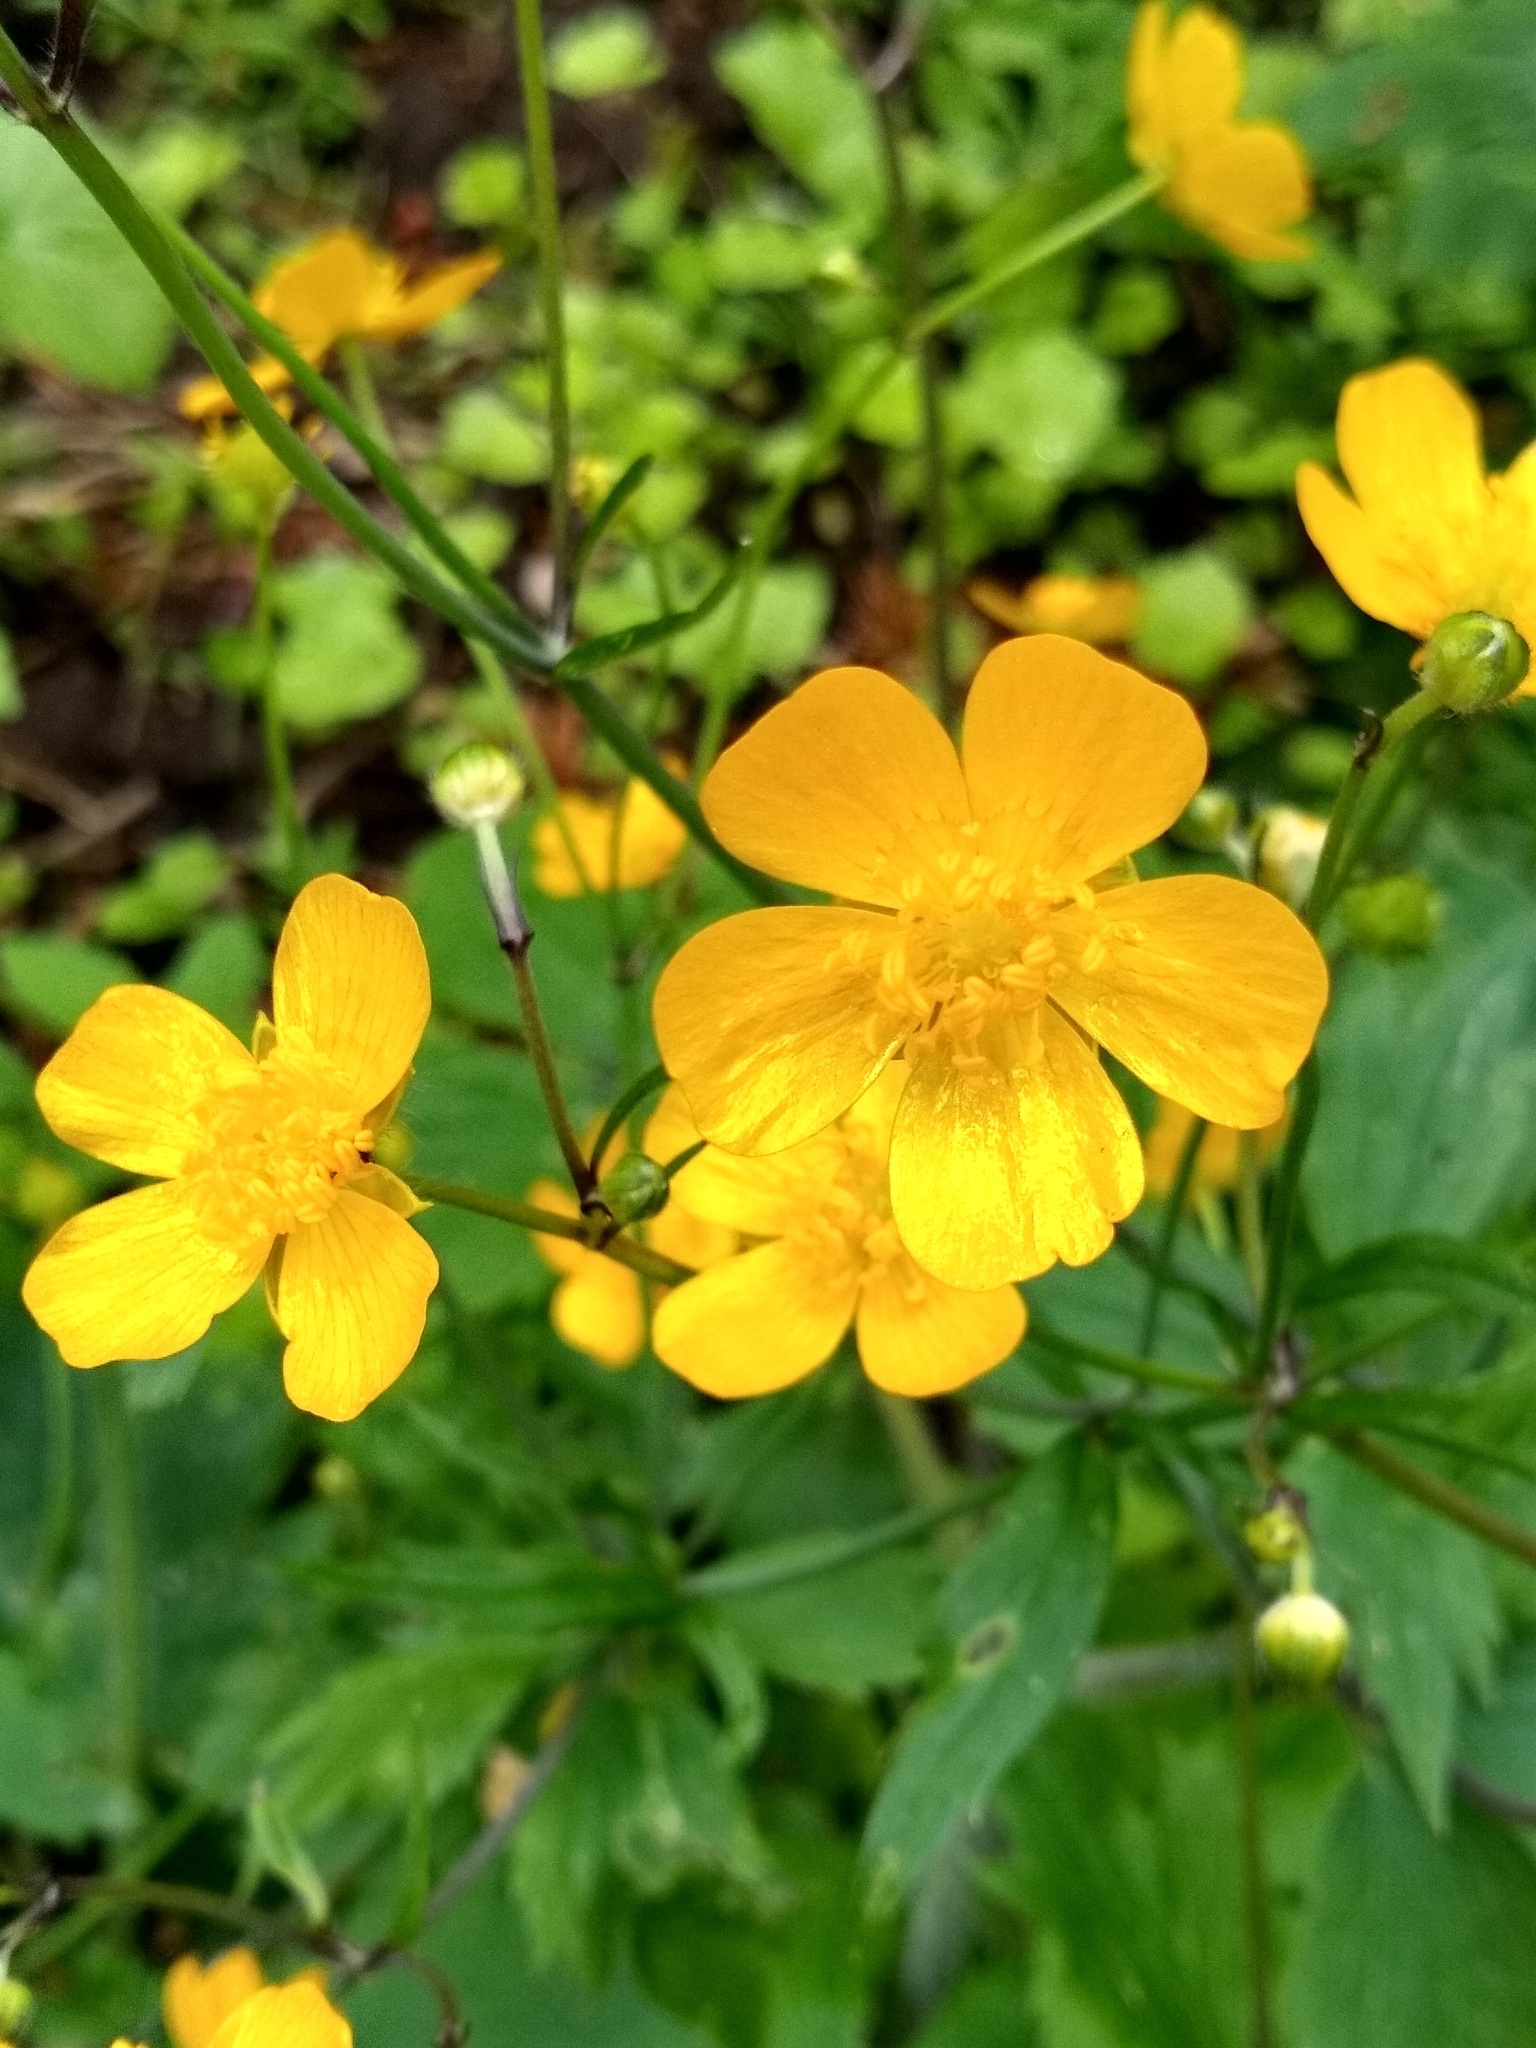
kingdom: Plantae
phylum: Tracheophyta
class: Magnoliopsida
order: Ranunculales
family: Ranunculaceae
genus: Ranunculus
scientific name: Ranunculus lanuginosus
